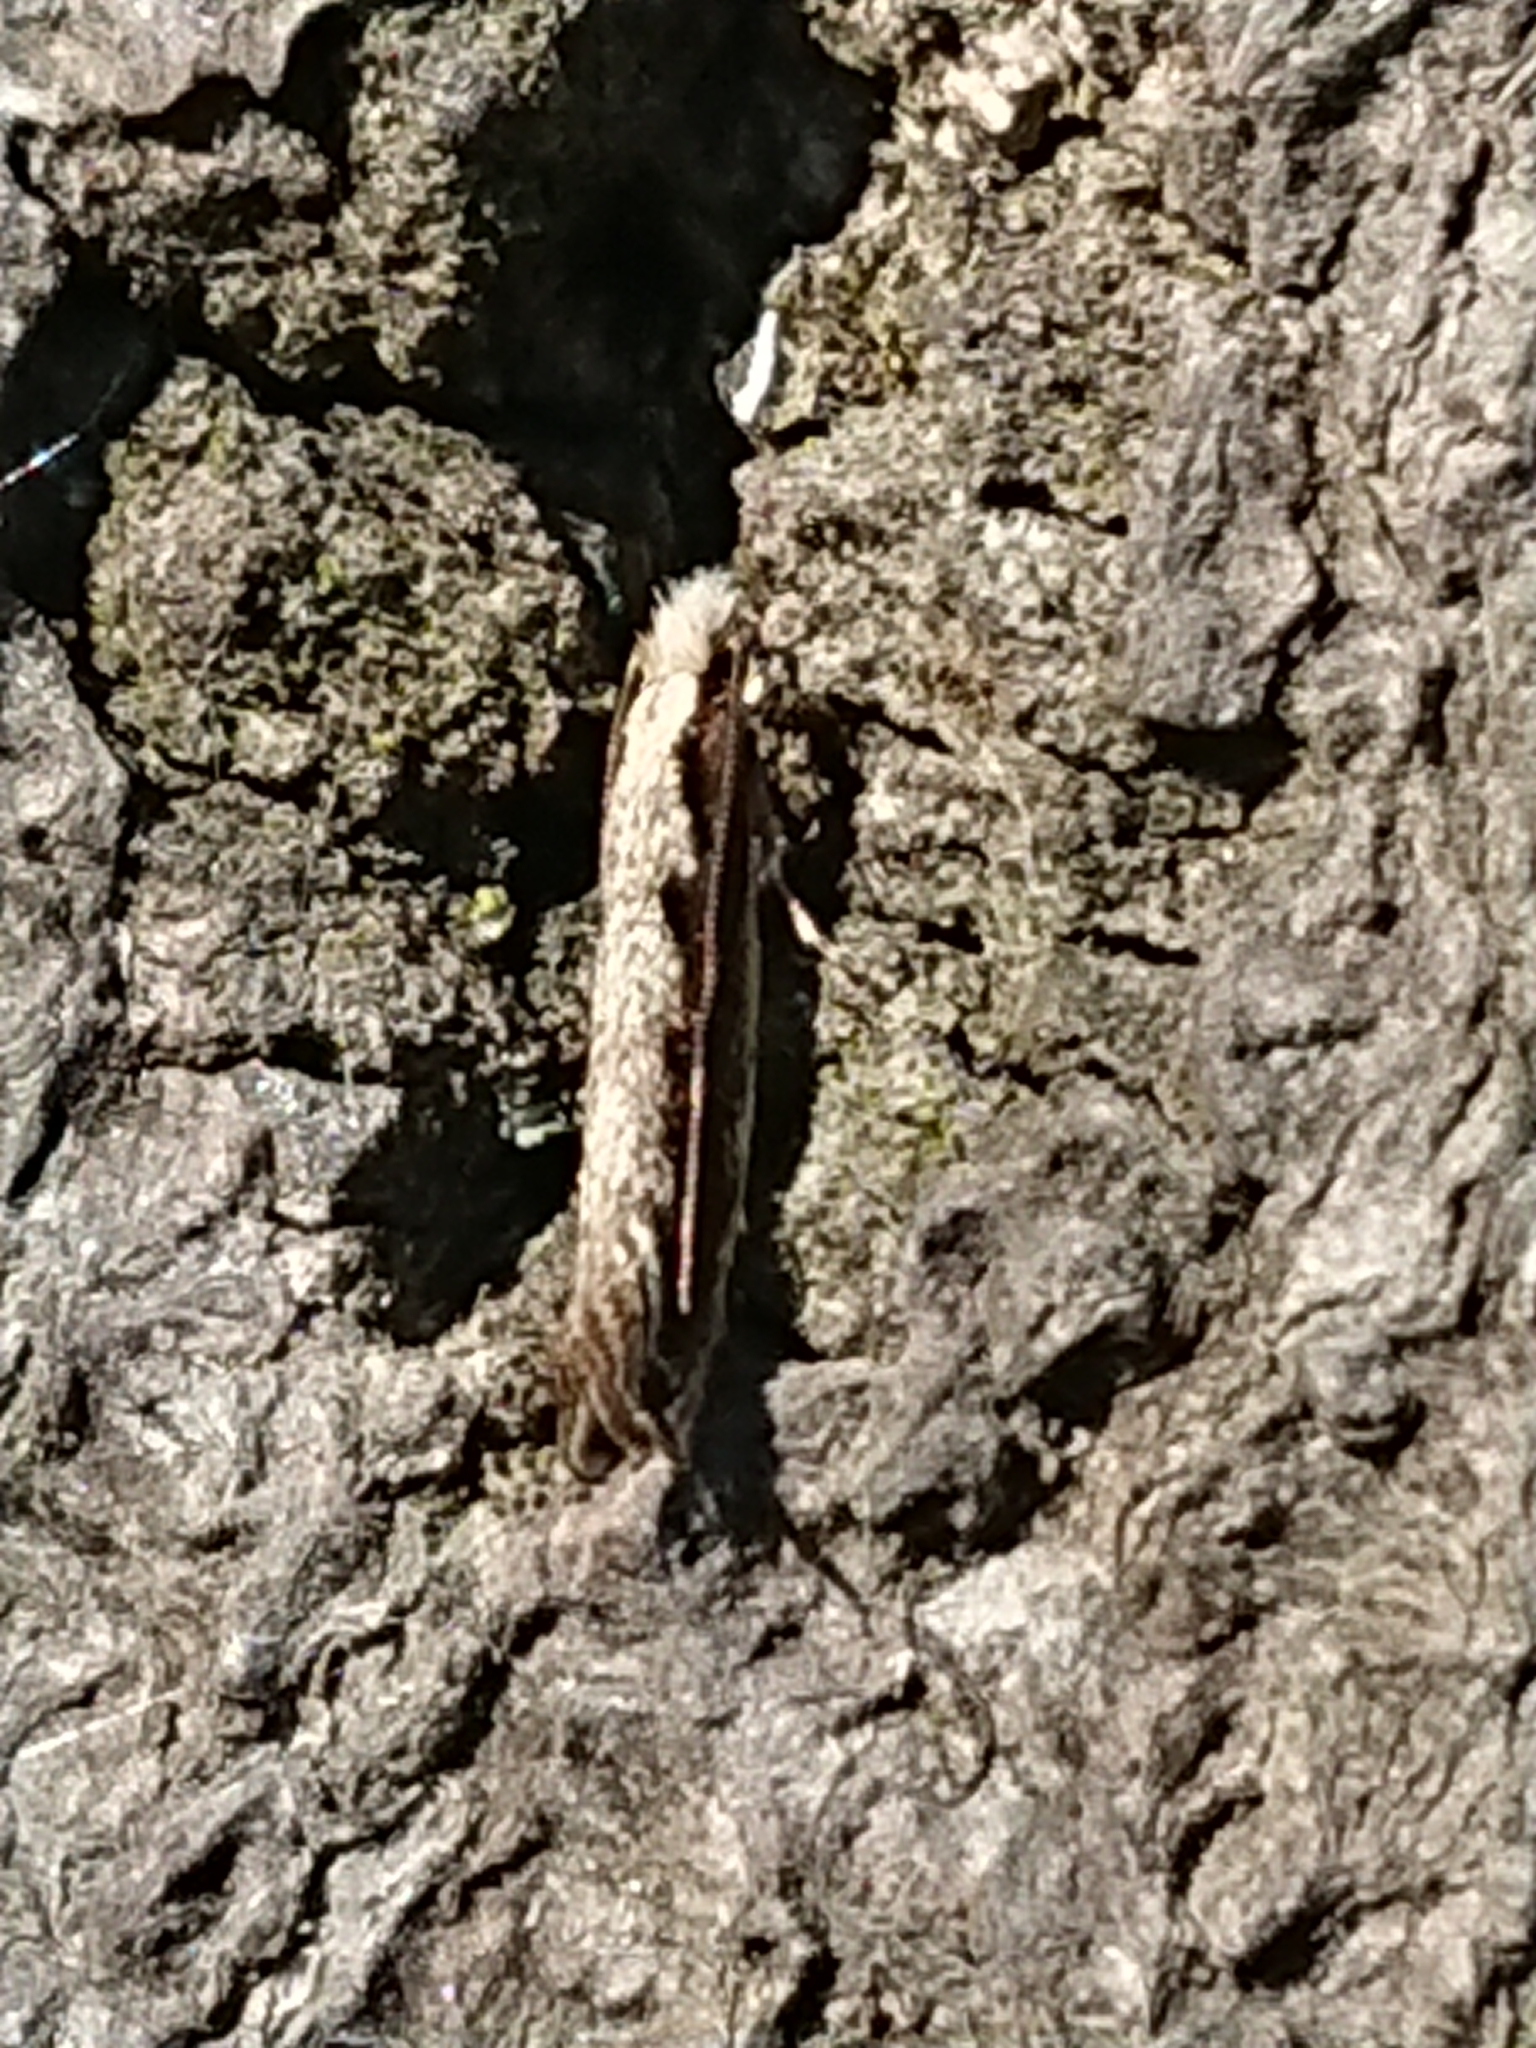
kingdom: Animalia
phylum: Arthropoda
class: Insecta
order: Lepidoptera
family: Tineidae
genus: Erechthias
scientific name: Erechthias fulguritella
